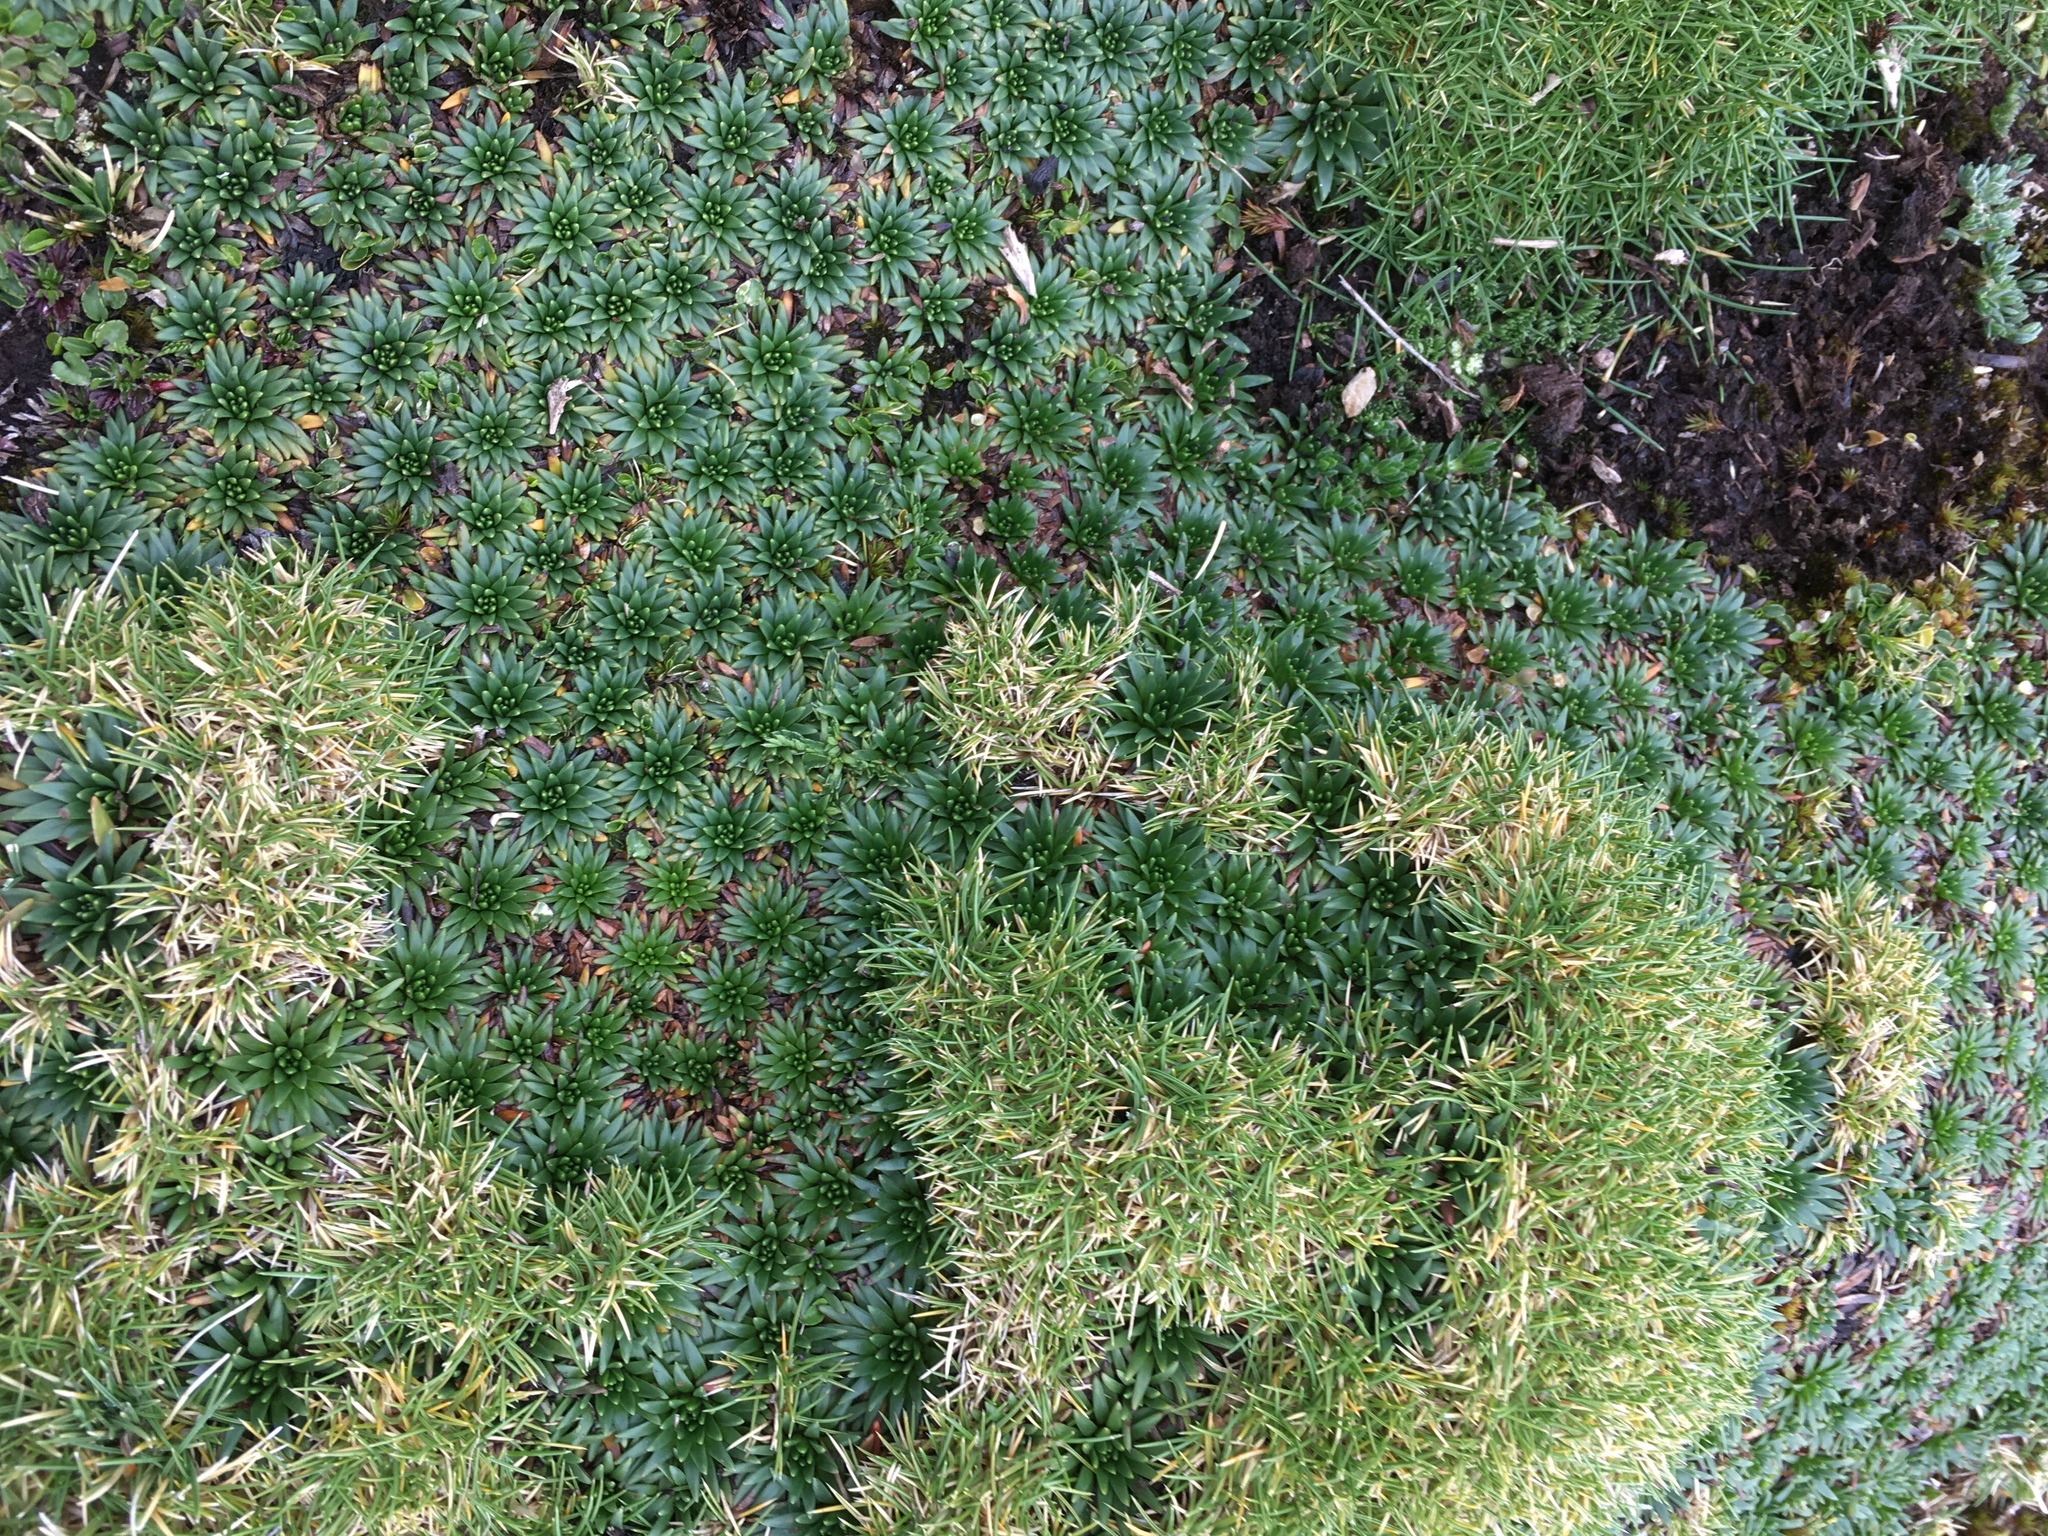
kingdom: Plantae
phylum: Tracheophyta
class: Magnoliopsida
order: Lamiales
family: Plantaginaceae
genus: Plantago
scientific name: Plantago rigida
